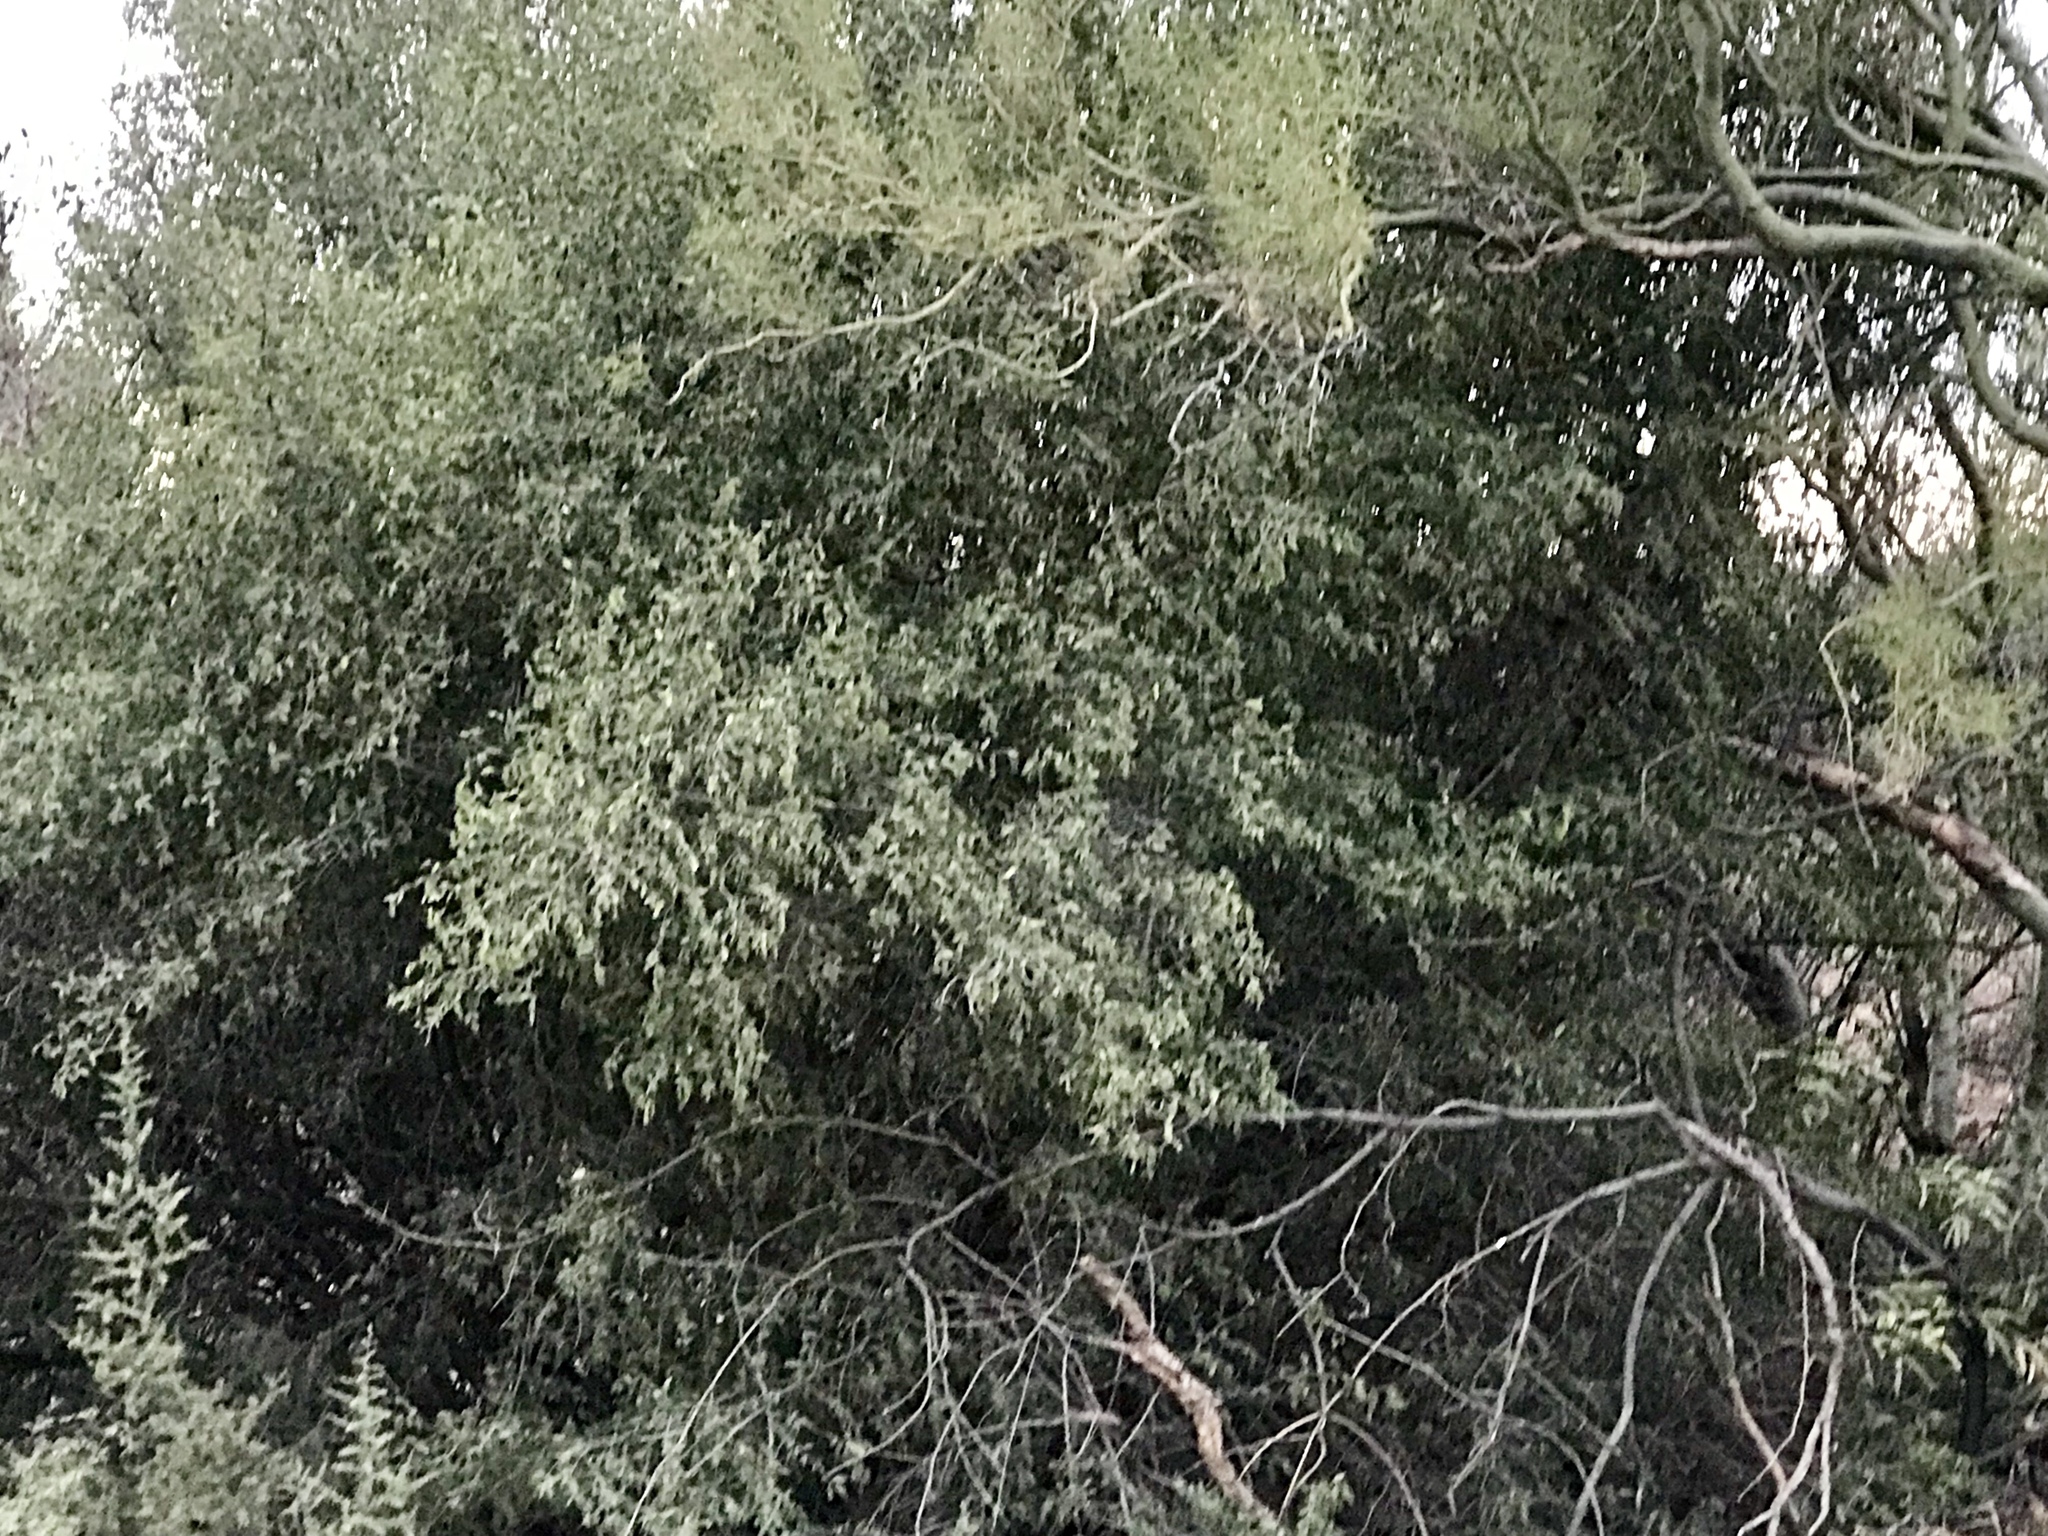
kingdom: Plantae
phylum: Tracheophyta
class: Magnoliopsida
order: Rosales
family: Cannabaceae
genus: Celtis
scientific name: Celtis pallida
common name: Desert hackberry
